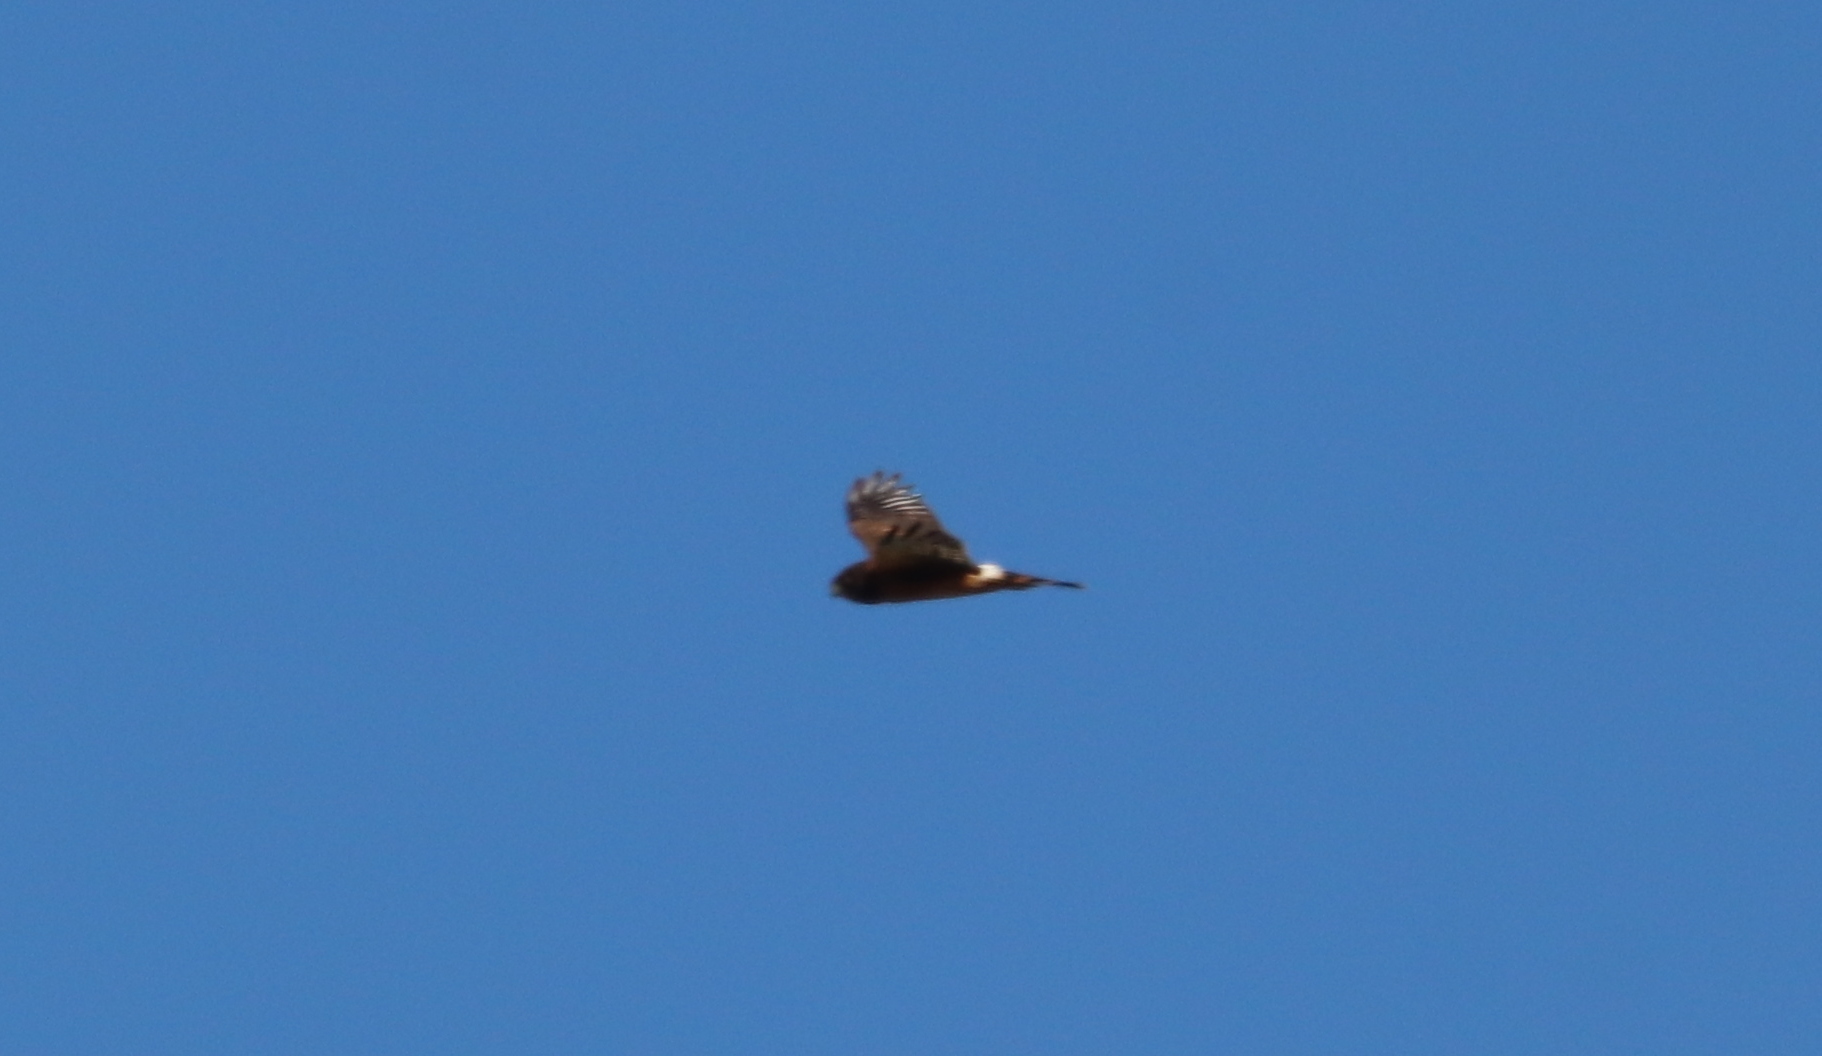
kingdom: Animalia
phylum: Chordata
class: Aves
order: Accipitriformes
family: Accipitridae
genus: Circus
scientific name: Circus cyaneus
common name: Hen harrier
